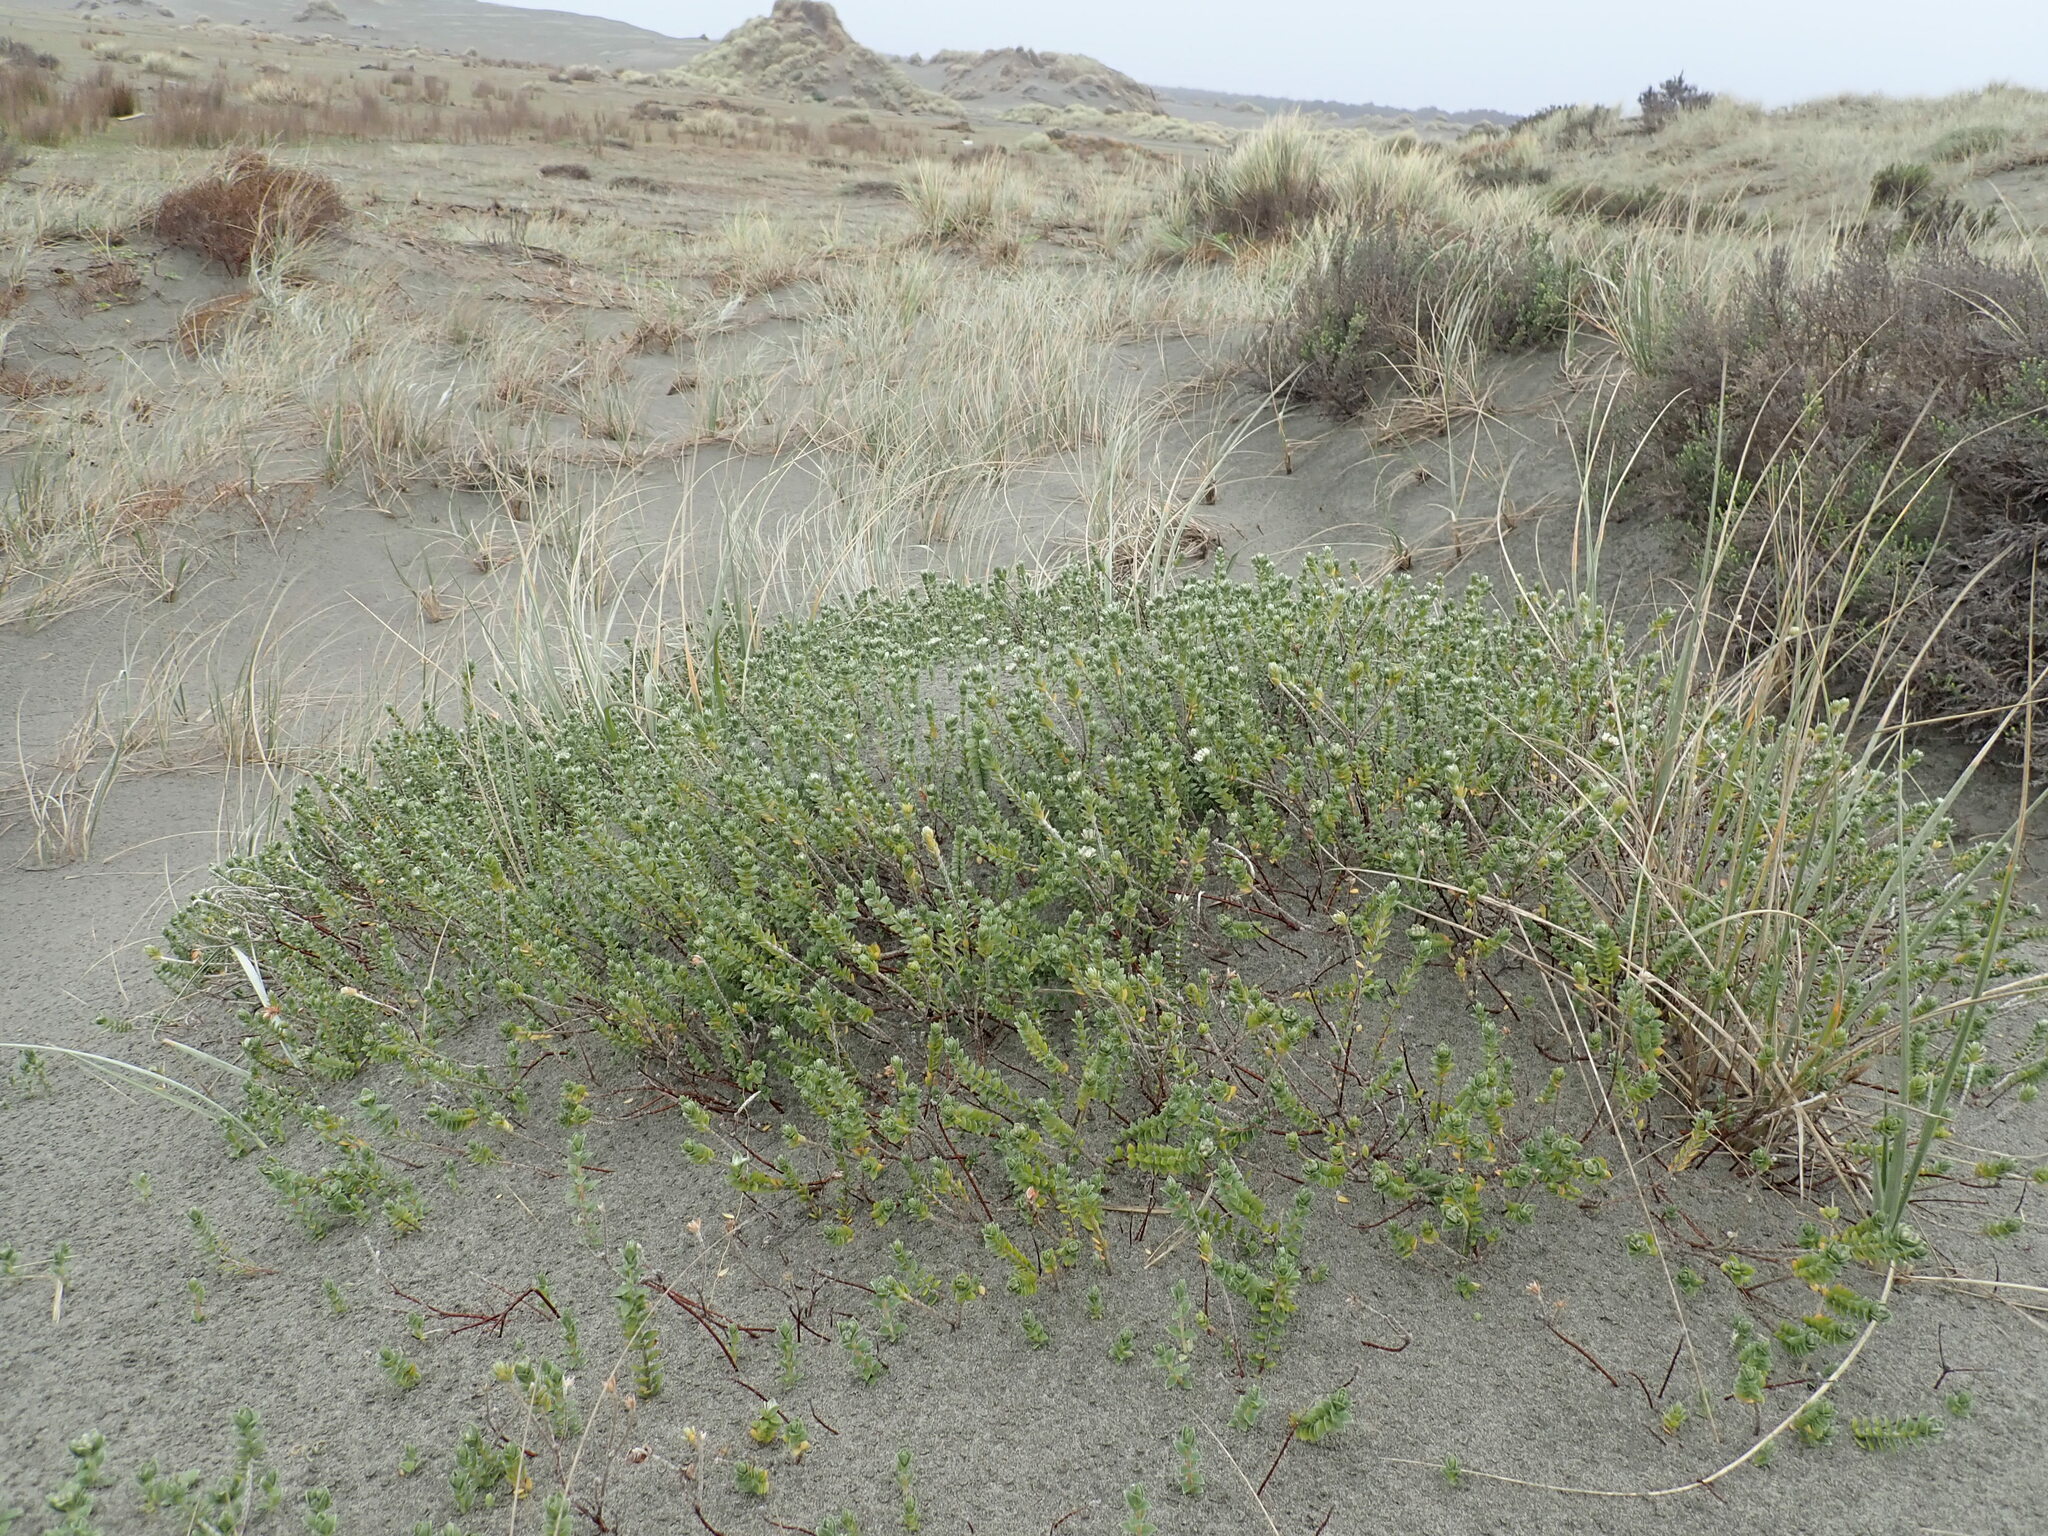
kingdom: Plantae
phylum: Tracheophyta
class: Magnoliopsida
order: Malvales
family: Thymelaeaceae
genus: Pimelea
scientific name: Pimelea villosa
